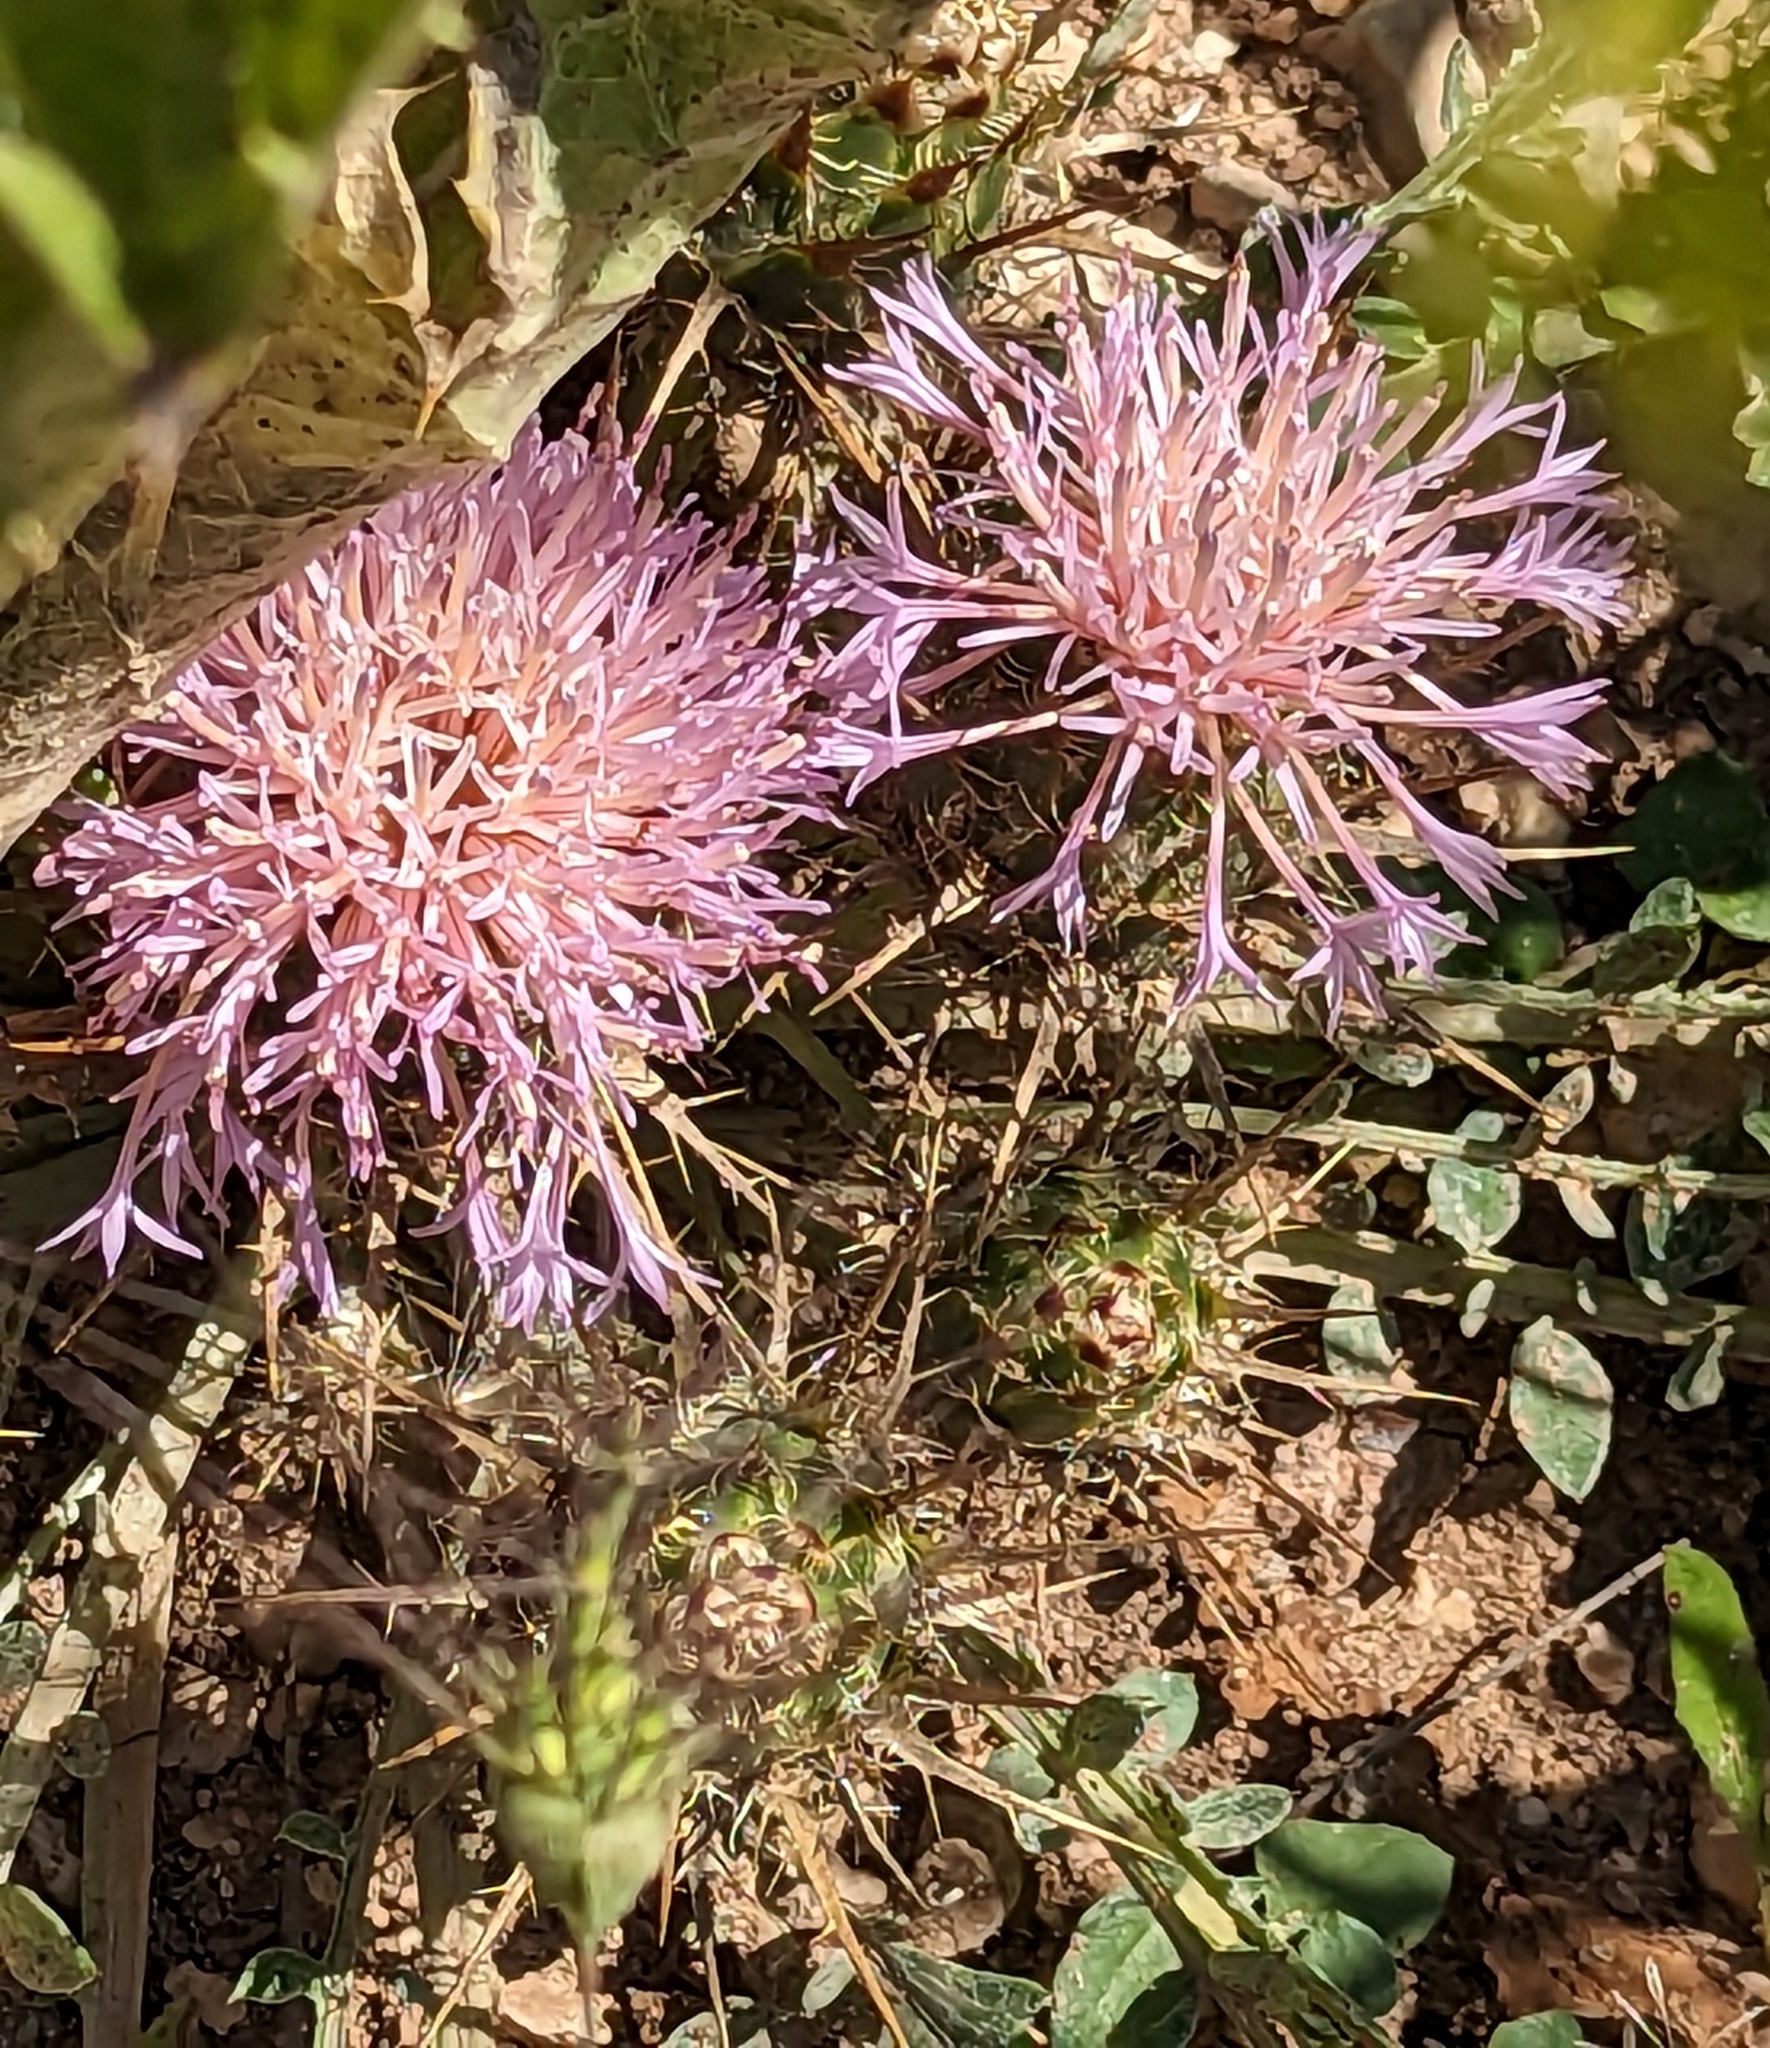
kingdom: Plantae
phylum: Tracheophyta
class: Magnoliopsida
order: Asterales
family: Asteraceae
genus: Centaurea
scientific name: Centaurea urvillei
